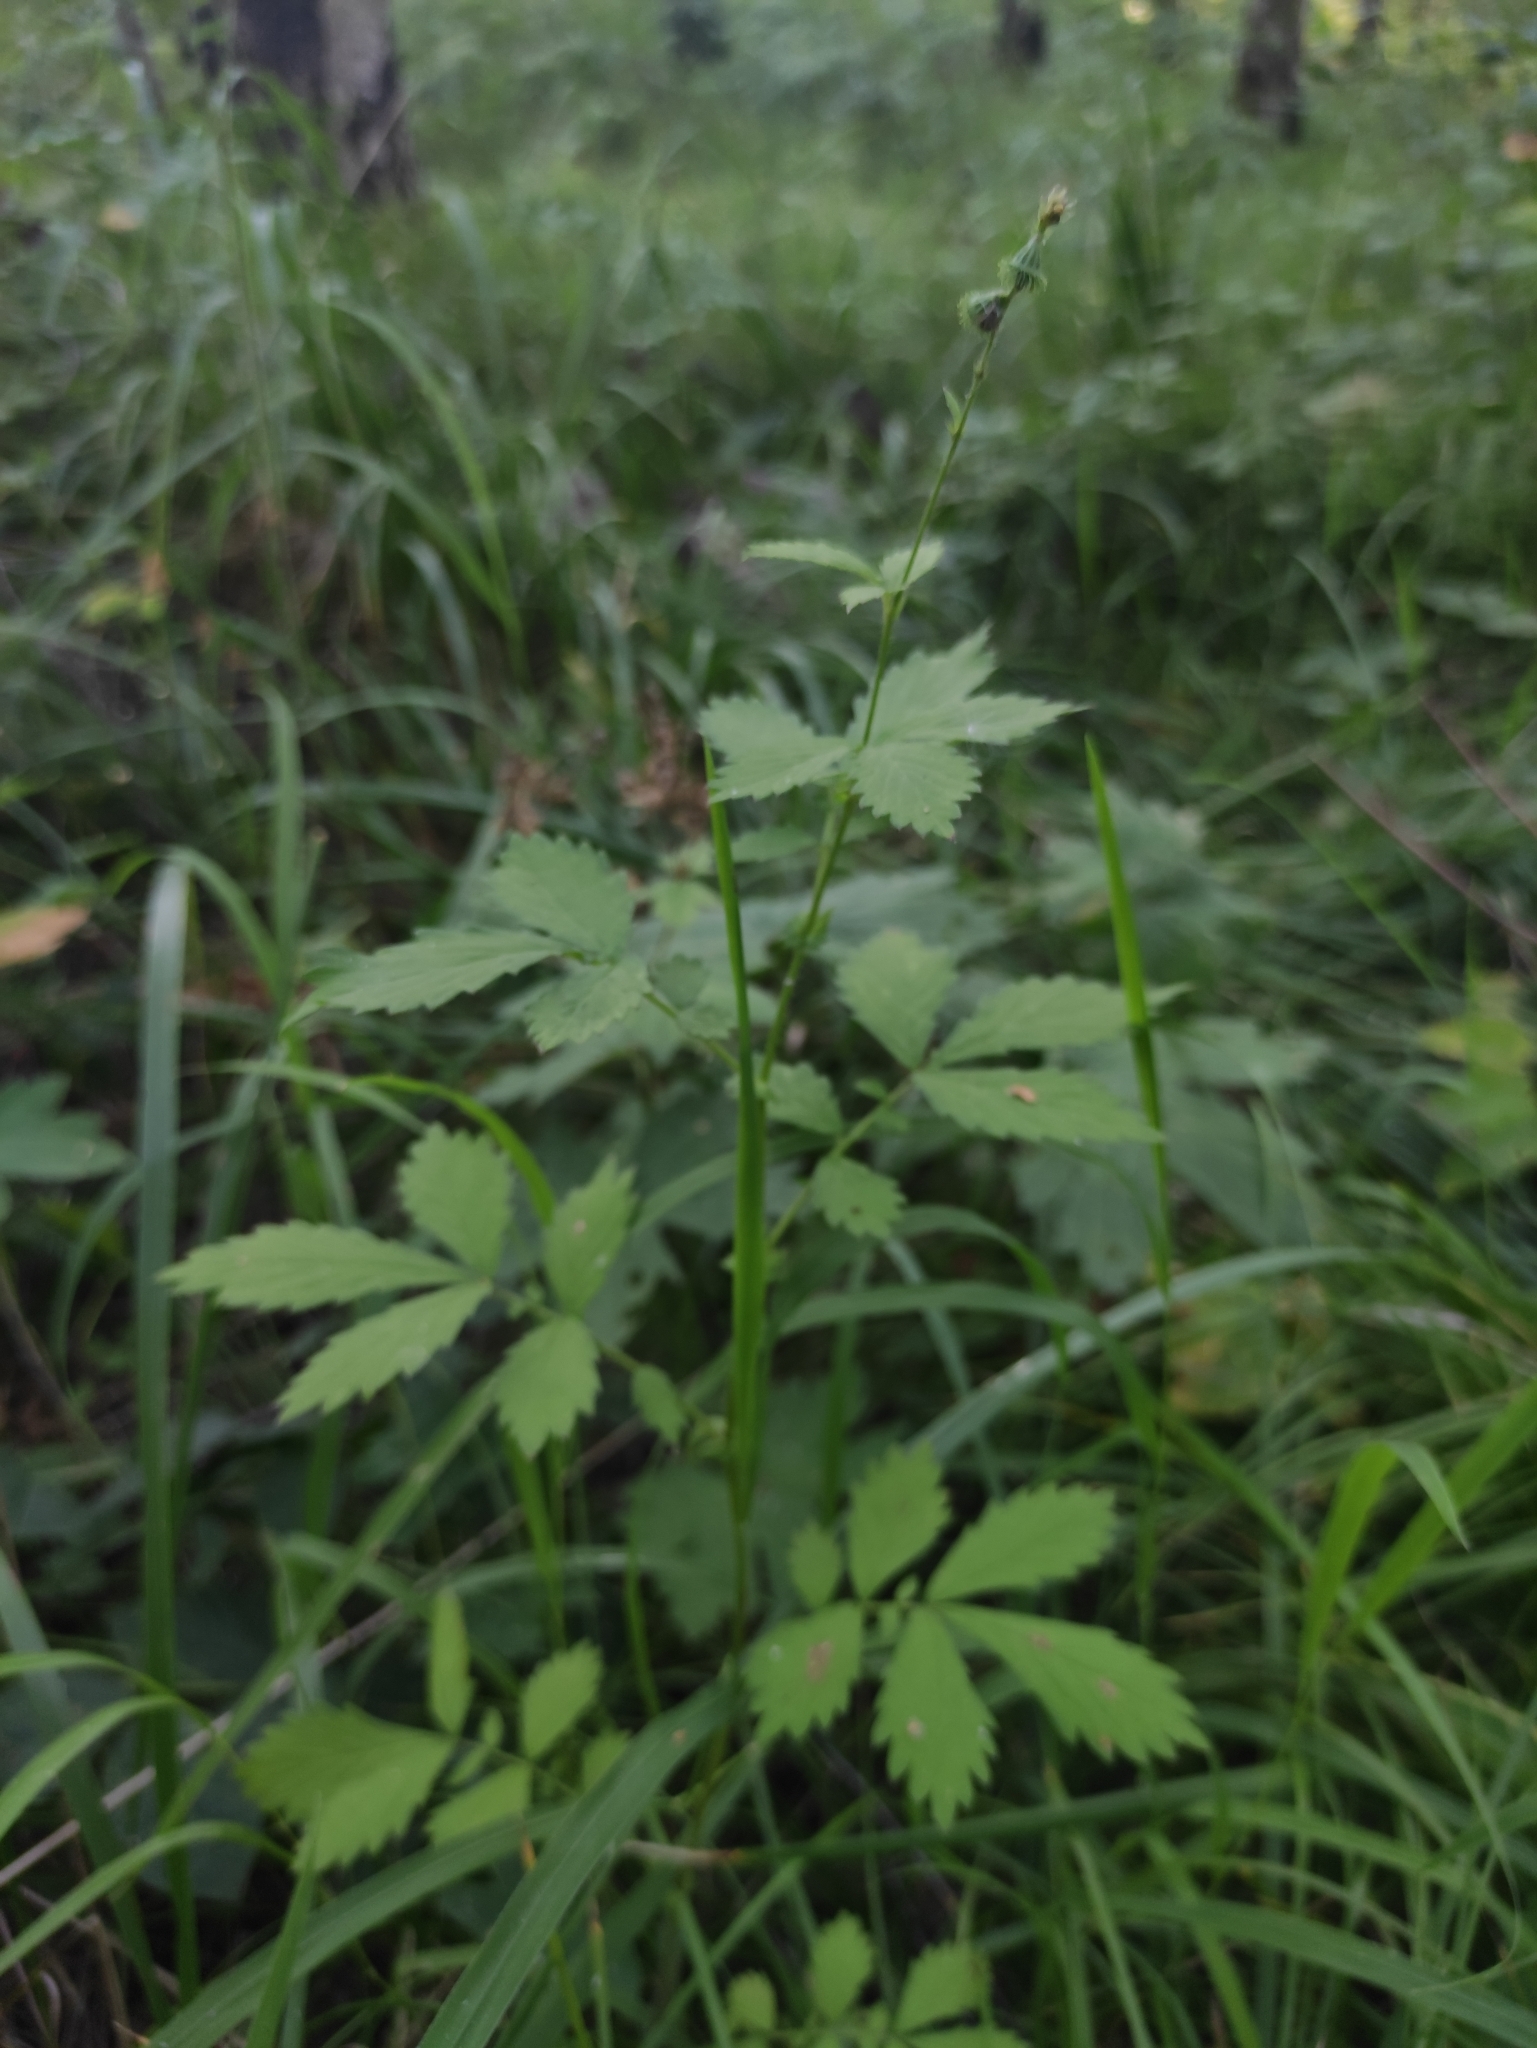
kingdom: Plantae
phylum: Tracheophyta
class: Magnoliopsida
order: Rosales
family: Rosaceae
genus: Agrimonia
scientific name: Agrimonia pilosa
